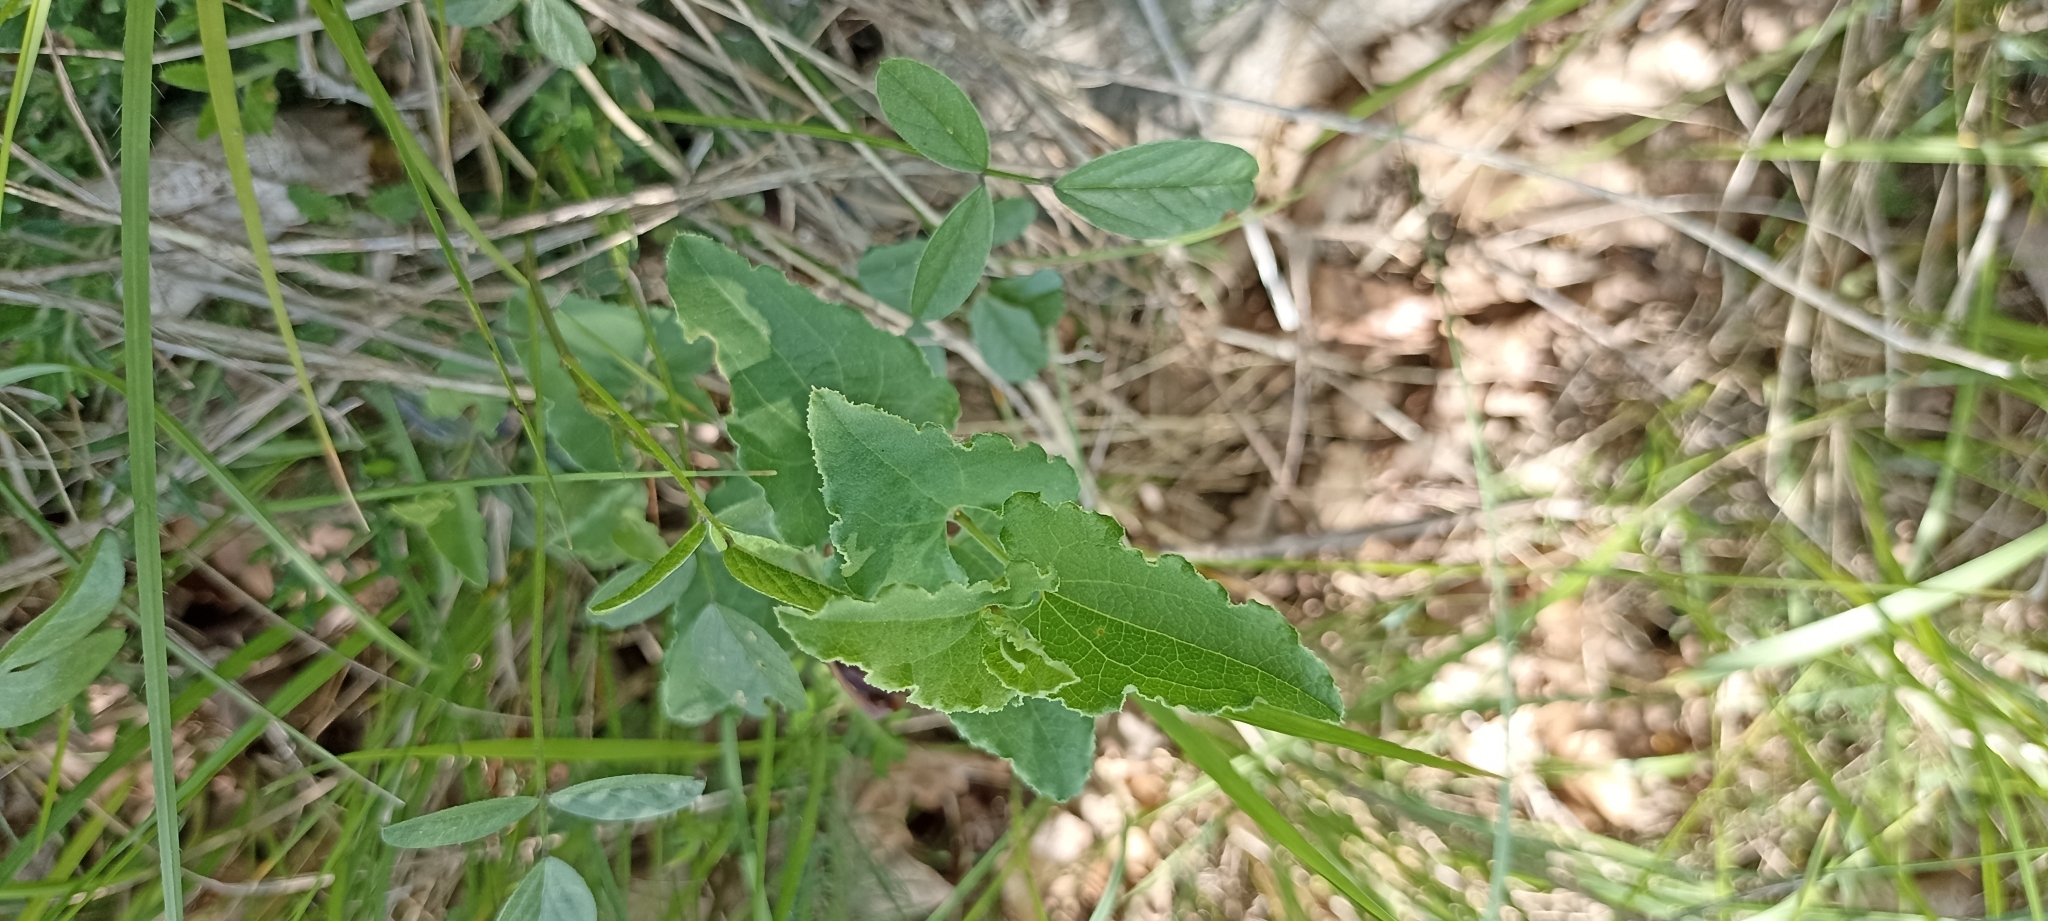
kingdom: Plantae
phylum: Tracheophyta
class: Magnoliopsida
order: Piperales
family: Aristolochiaceae
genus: Aristolochia
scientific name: Aristolochia pistolochia
